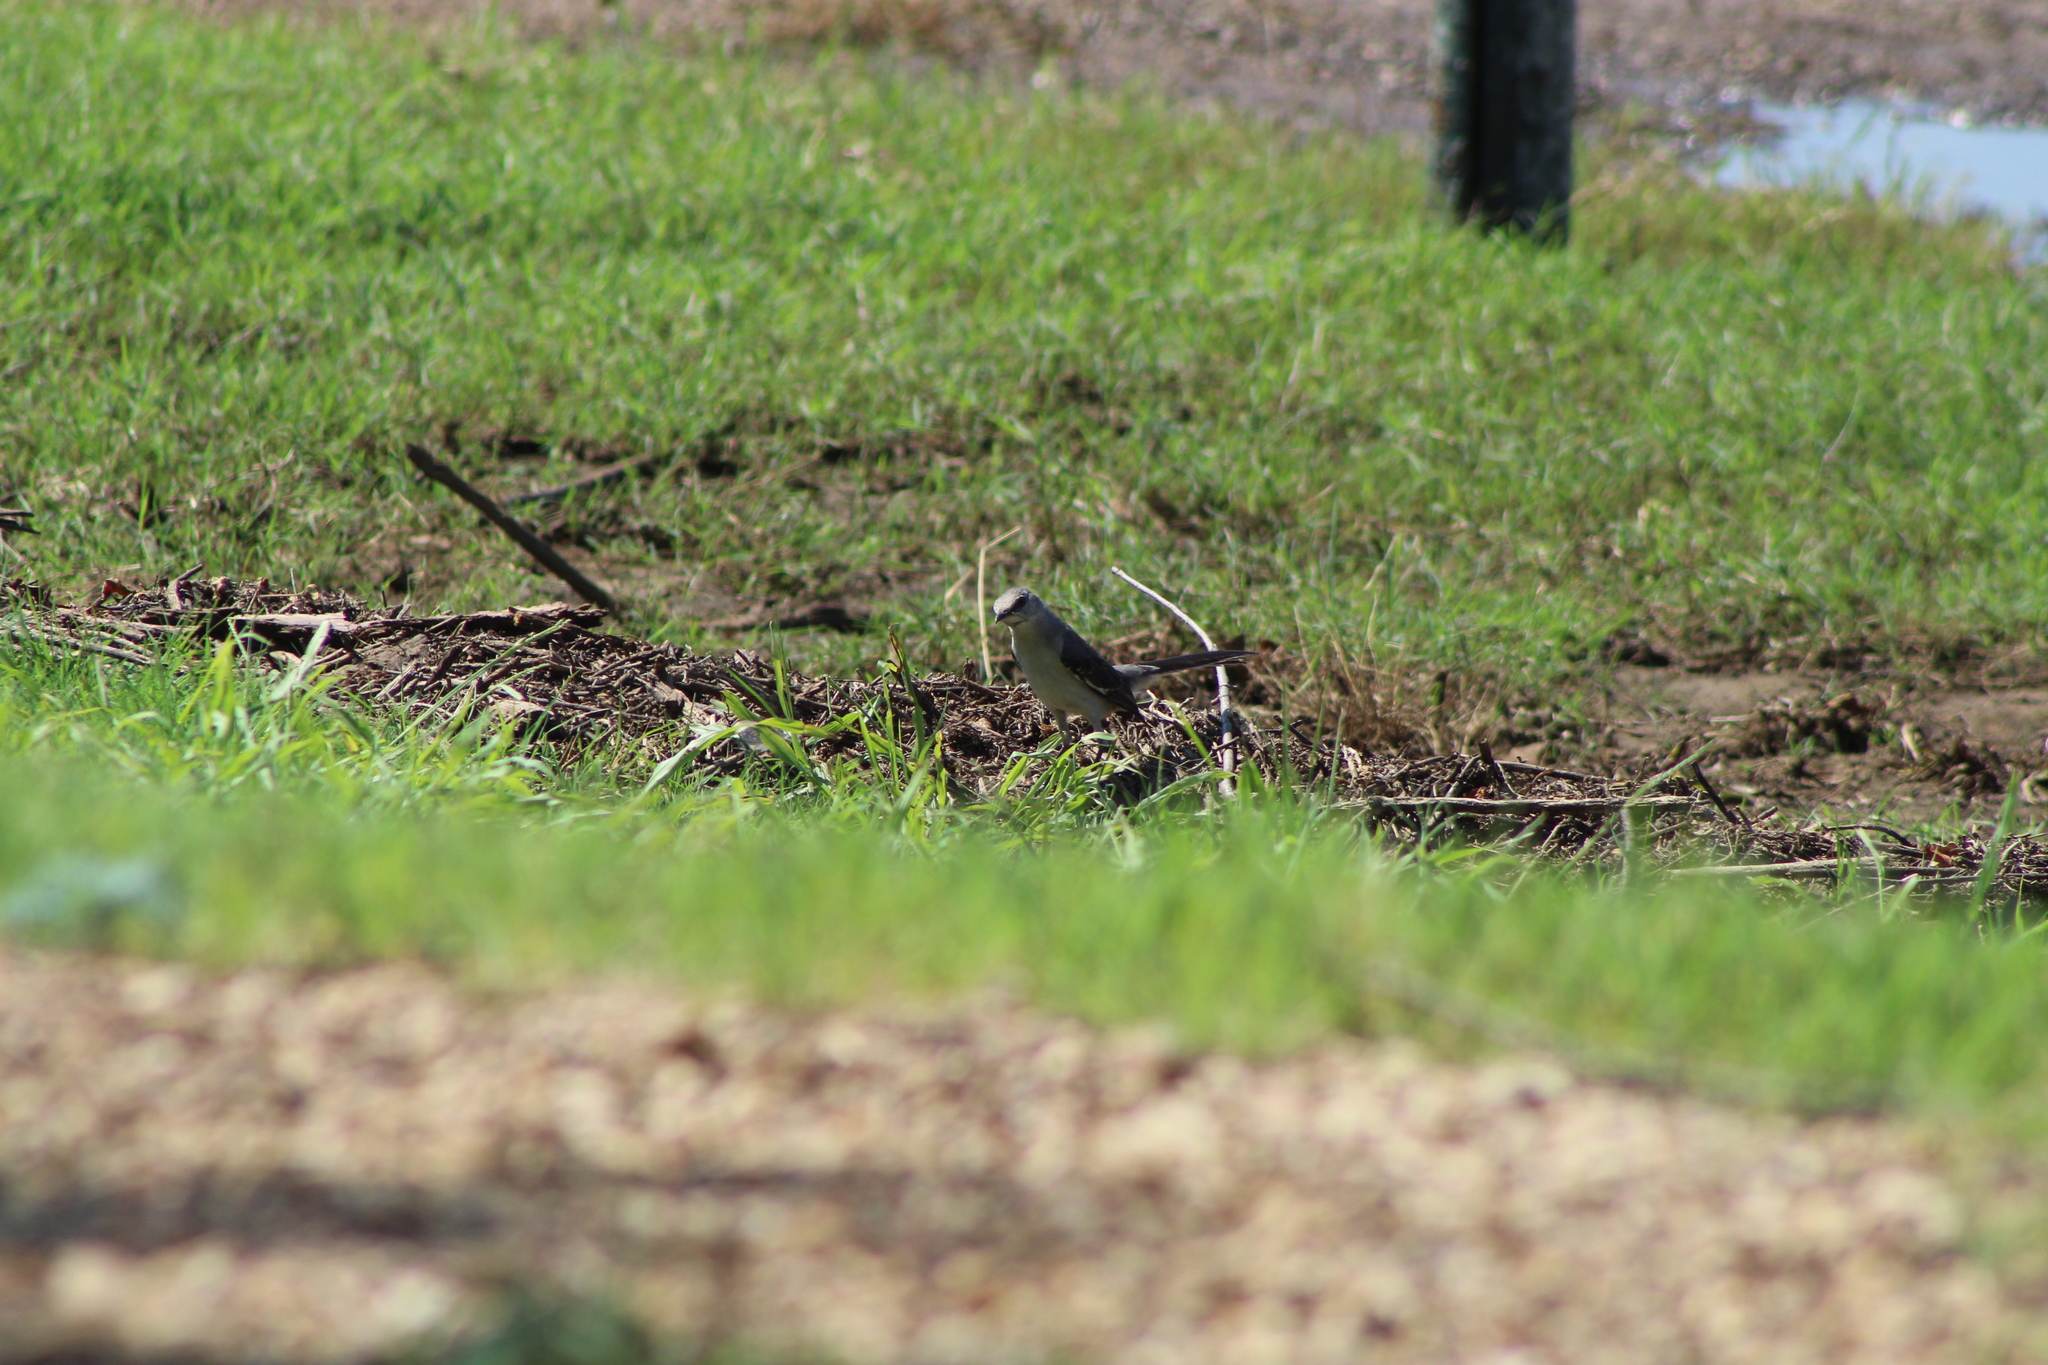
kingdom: Animalia
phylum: Chordata
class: Aves
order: Passeriformes
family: Mimidae
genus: Mimus
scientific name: Mimus polyglottos
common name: Northern mockingbird
